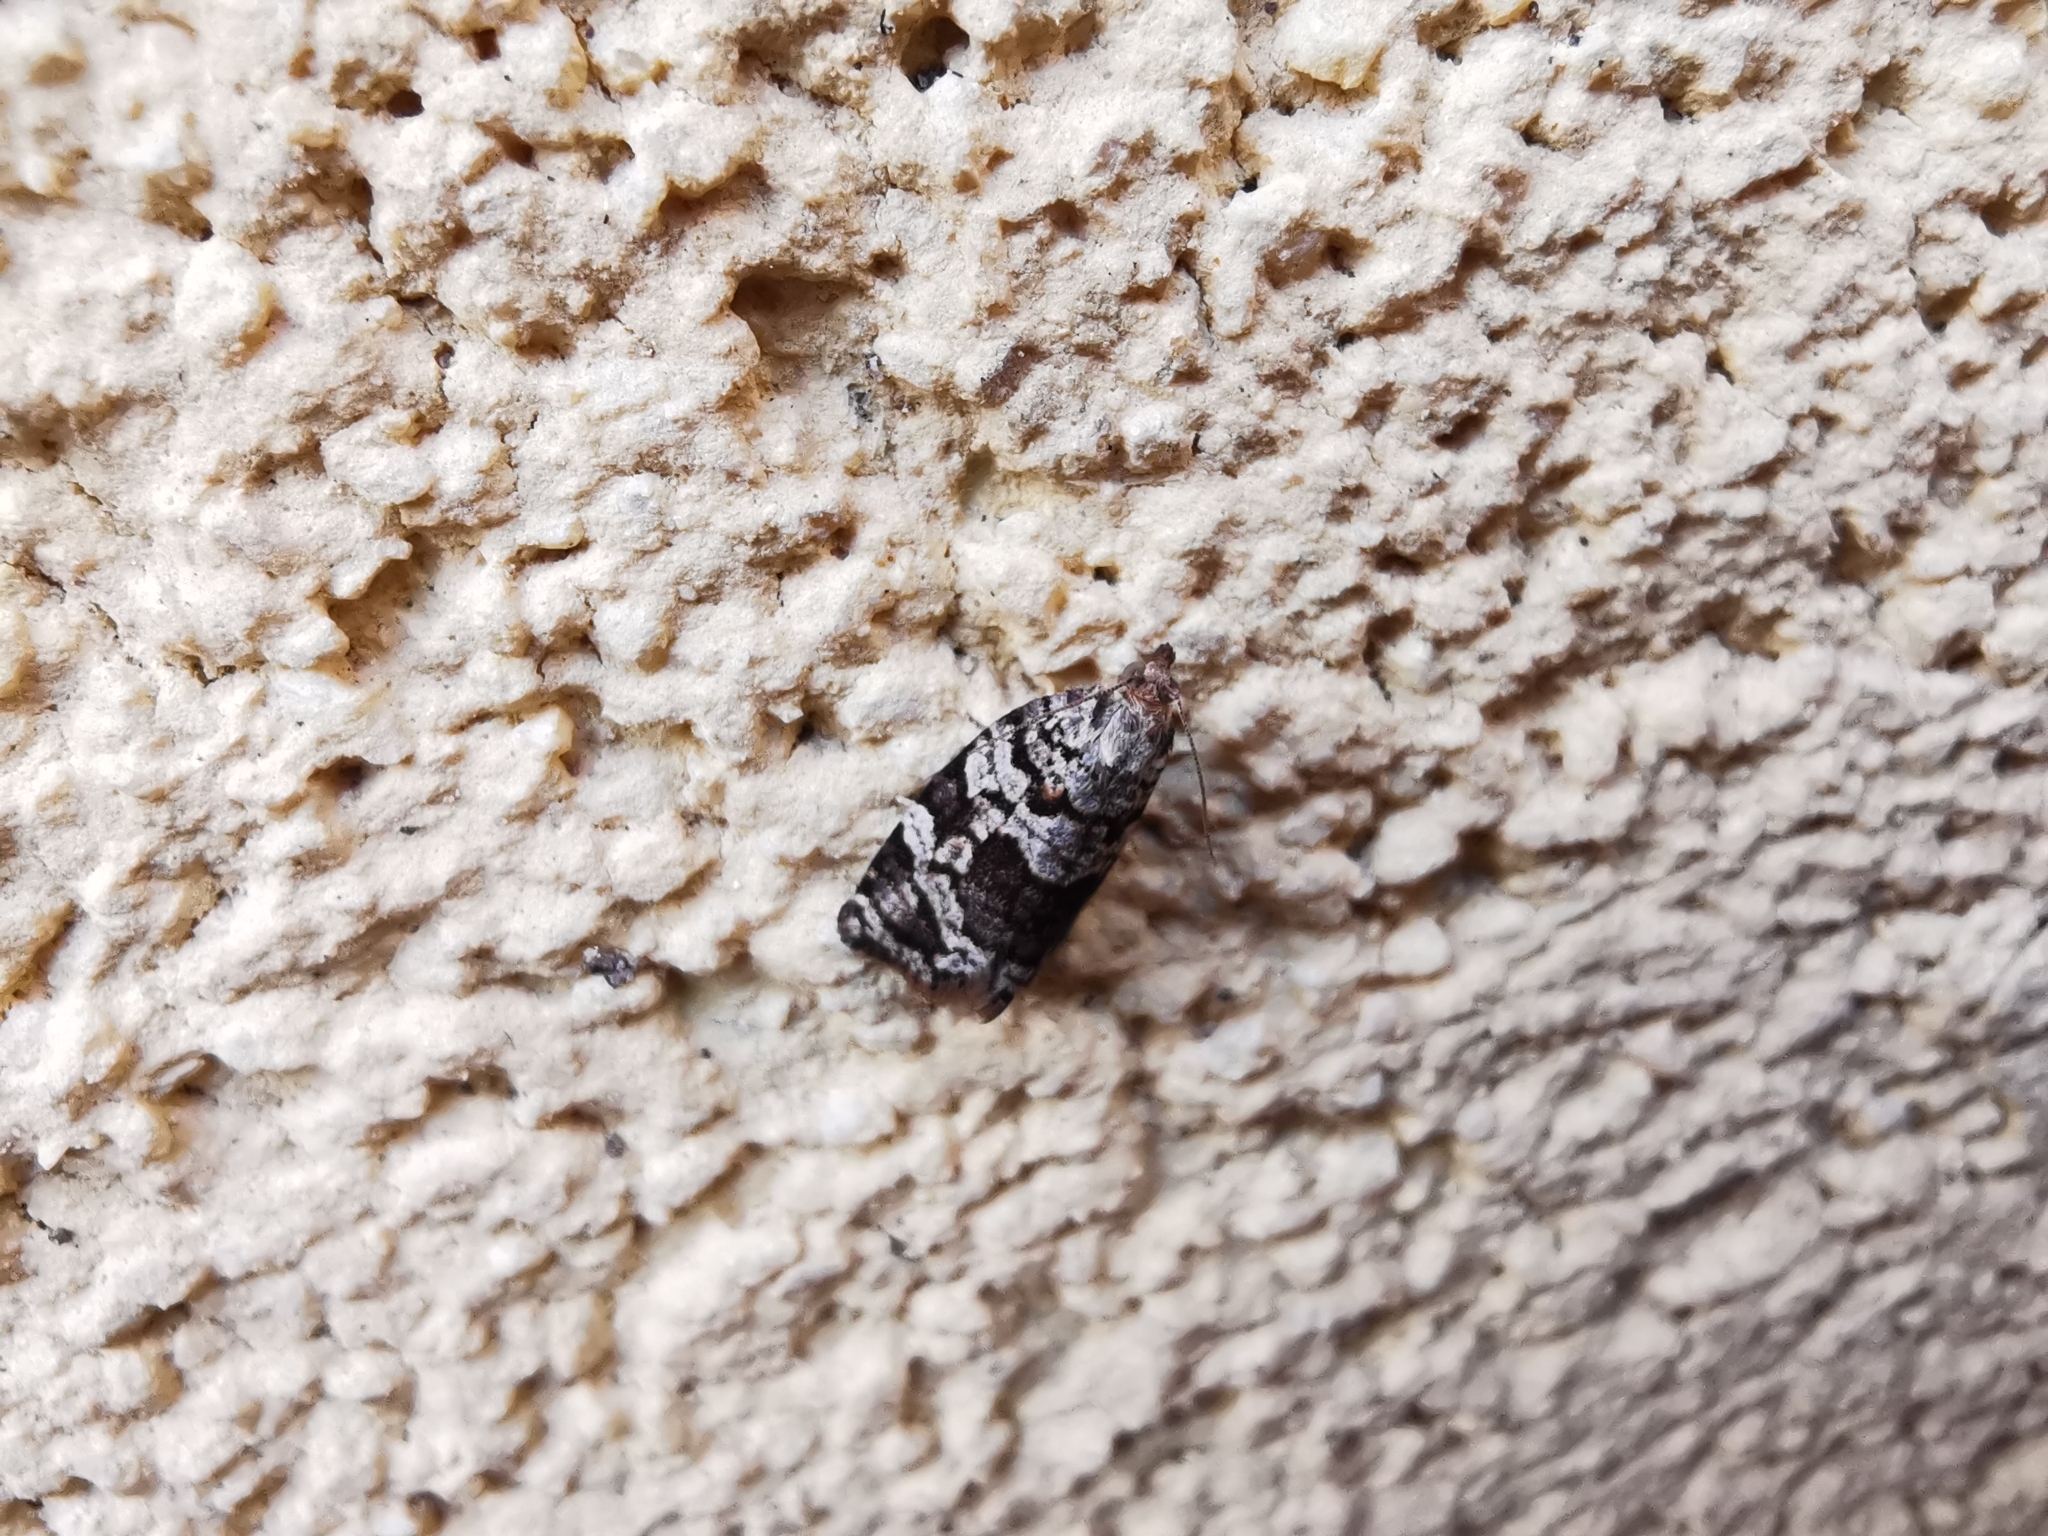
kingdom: Animalia
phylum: Arthropoda
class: Insecta
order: Lepidoptera
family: Tortricidae
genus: Dichelia
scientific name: Dichelia histrionana
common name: Tortricid moth
